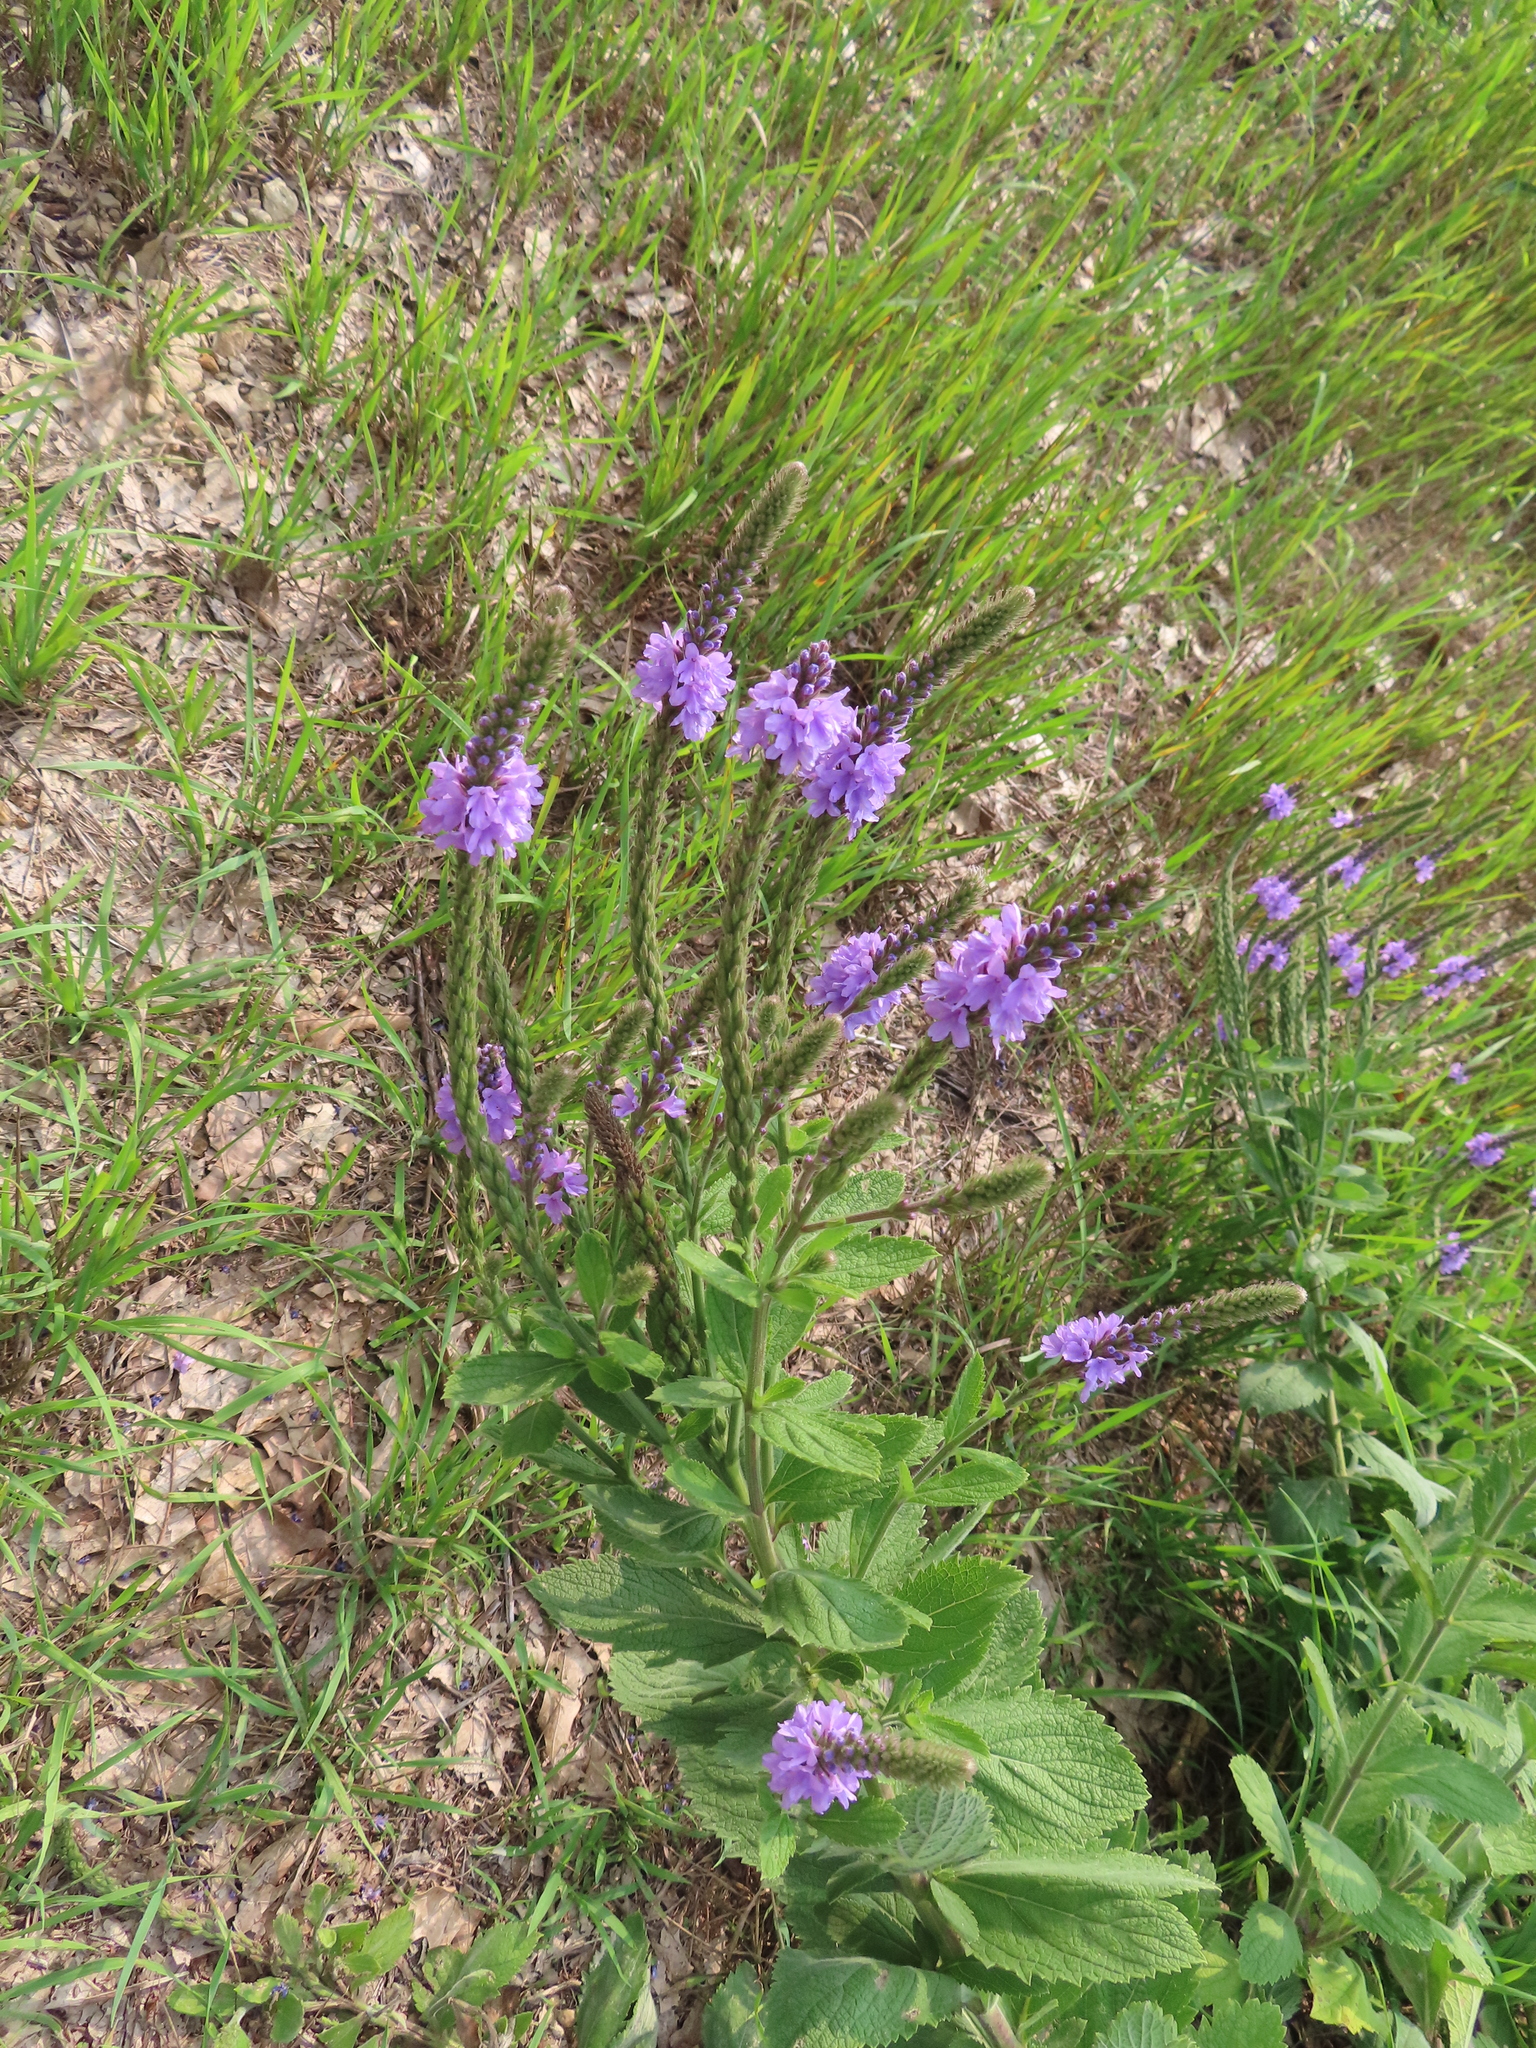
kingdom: Plantae
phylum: Tracheophyta
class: Magnoliopsida
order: Lamiales
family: Verbenaceae
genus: Verbena
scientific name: Verbena stricta
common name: Hoary vervain
